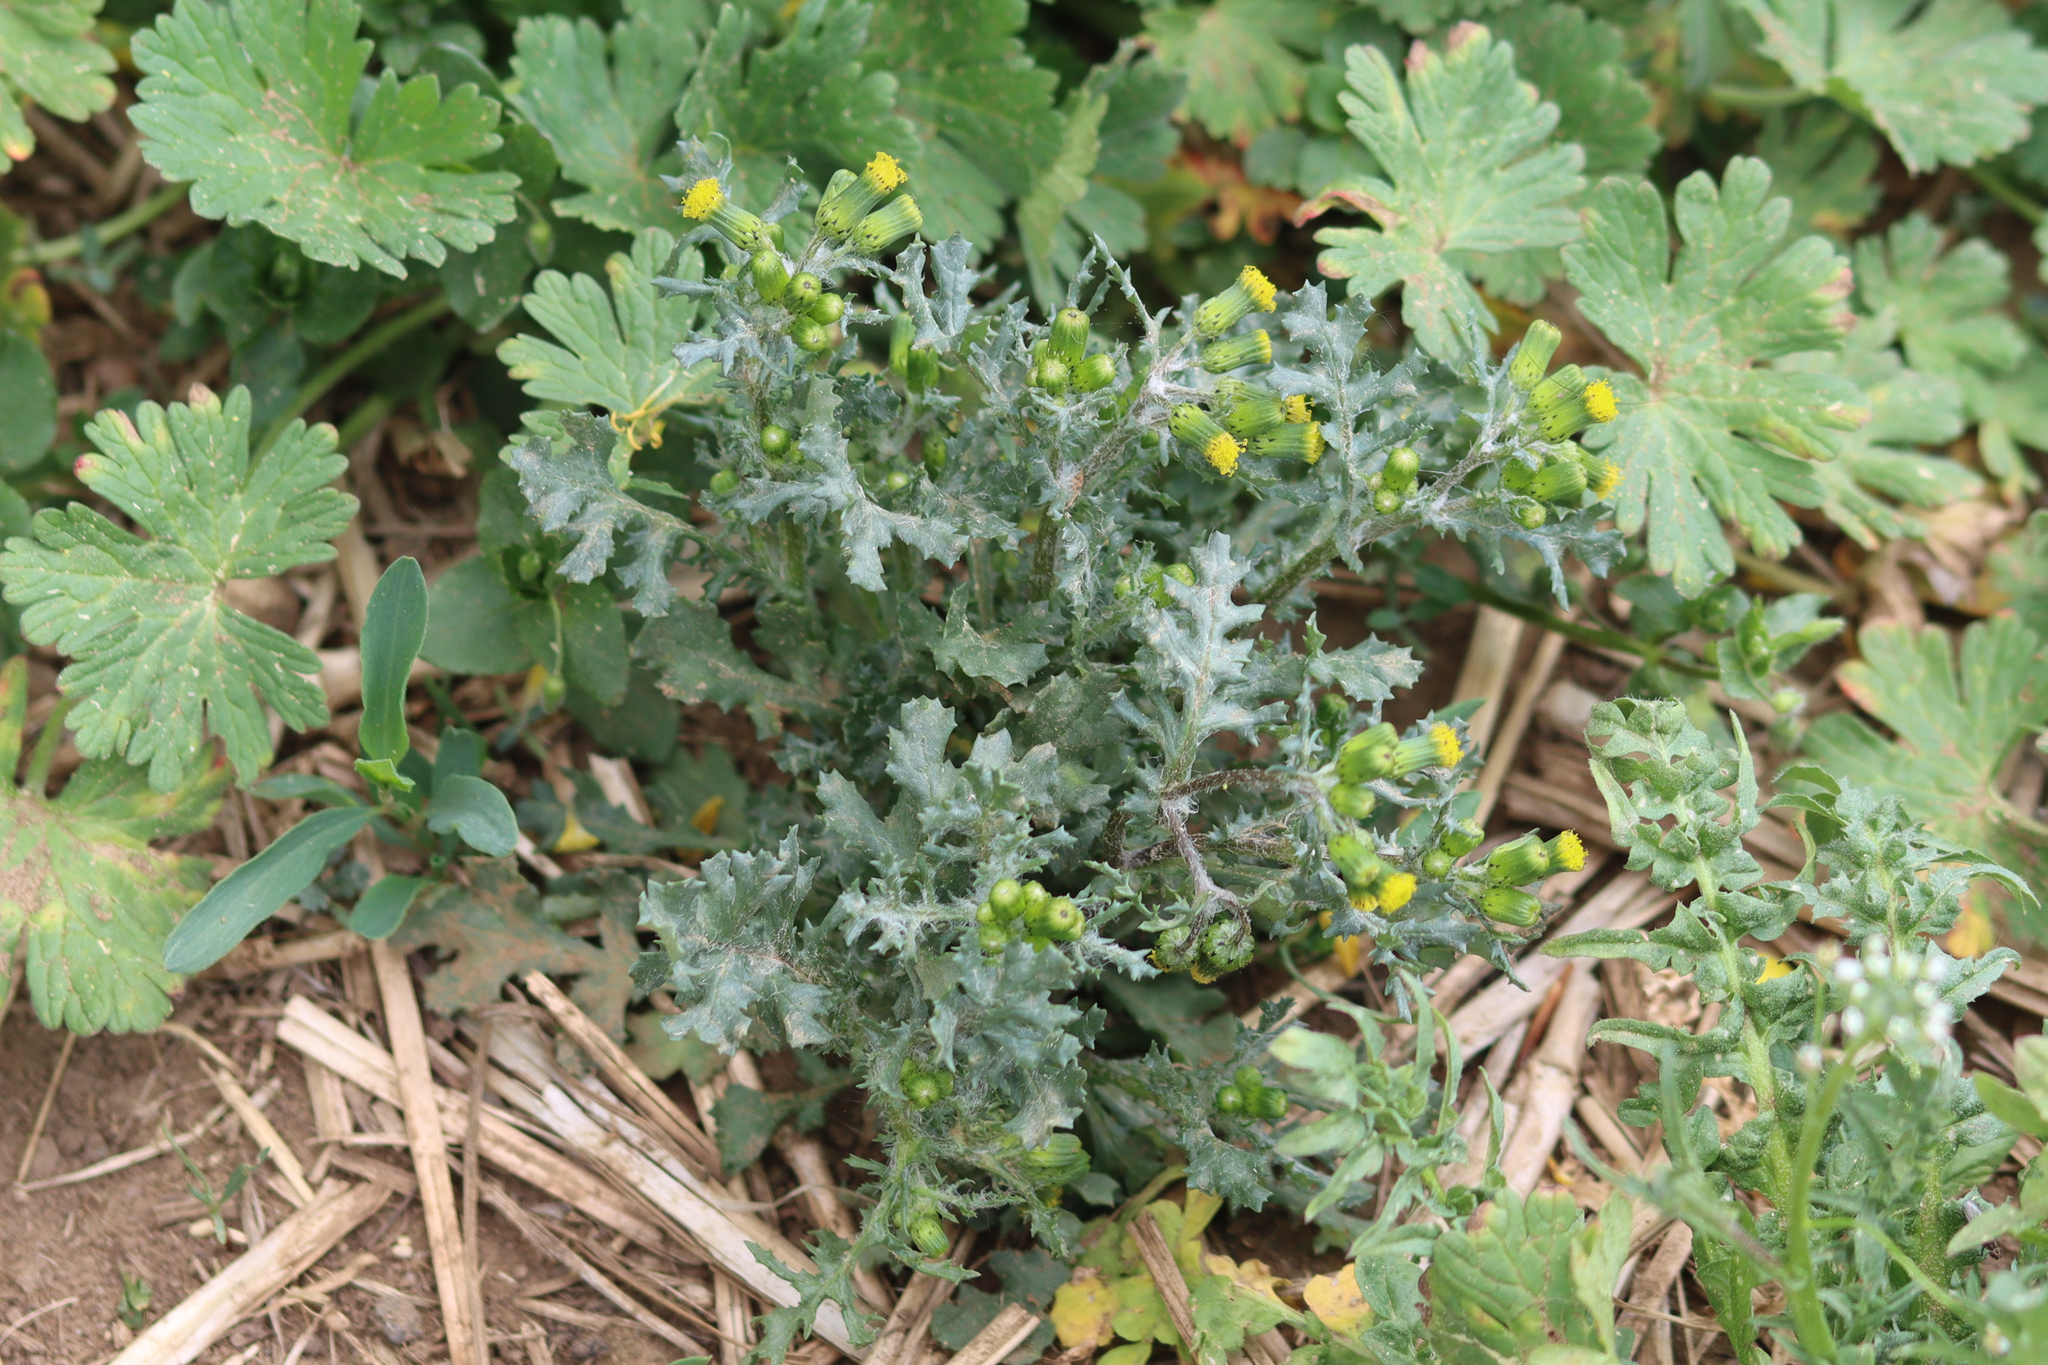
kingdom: Plantae
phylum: Tracheophyta
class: Magnoliopsida
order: Asterales
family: Asteraceae
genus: Senecio
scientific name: Senecio vulgaris
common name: Old-man-in-the-spring
